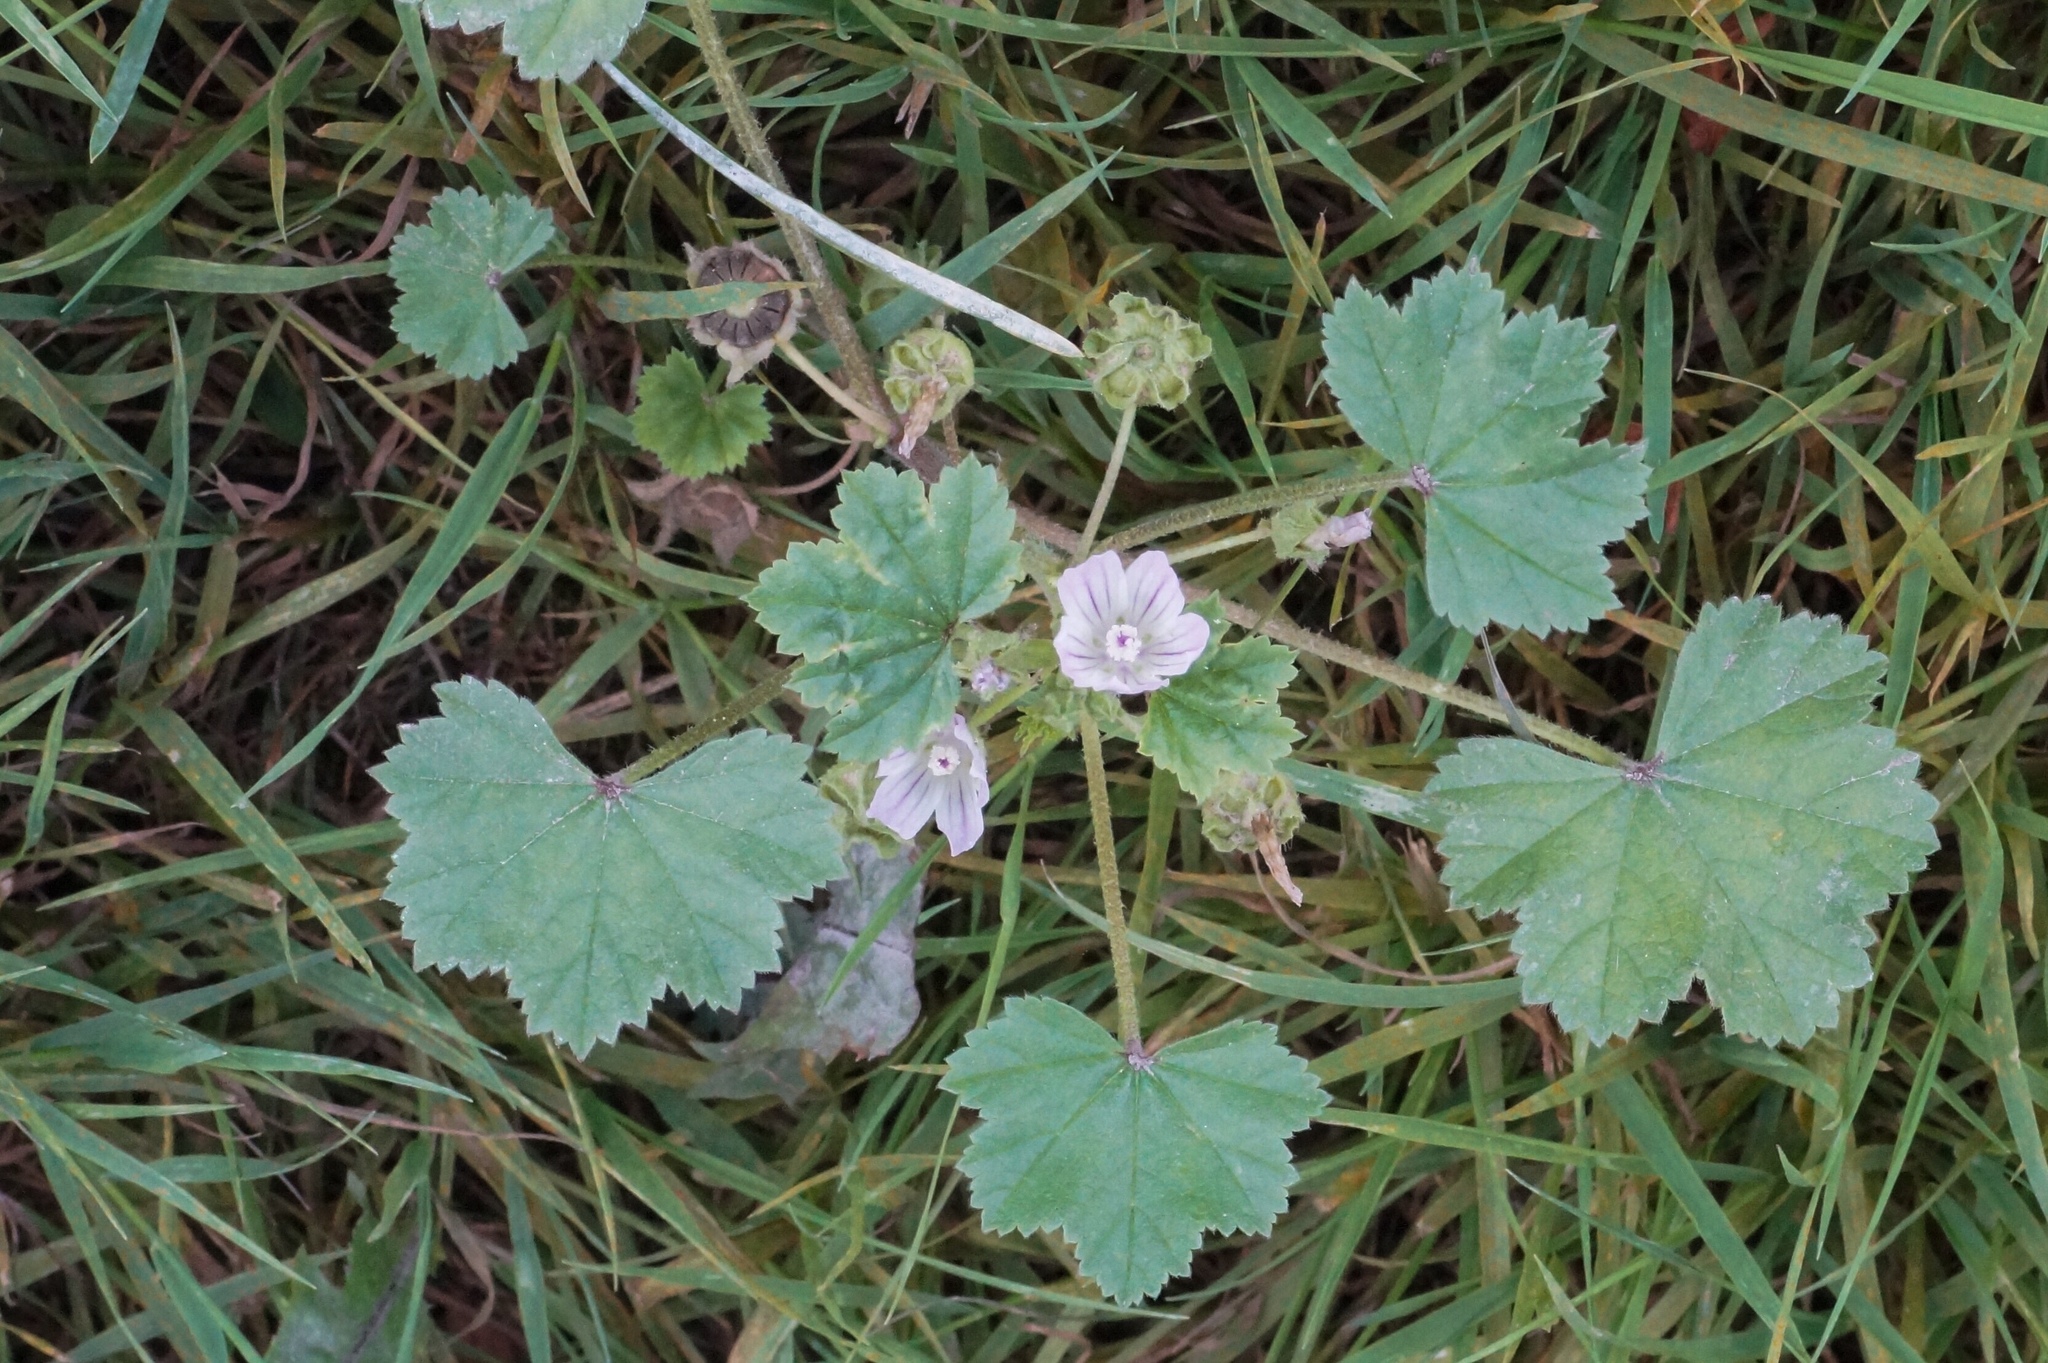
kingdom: Plantae
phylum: Tracheophyta
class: Magnoliopsida
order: Malvales
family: Malvaceae
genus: Malva
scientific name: Malva neglecta
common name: Common mallow
